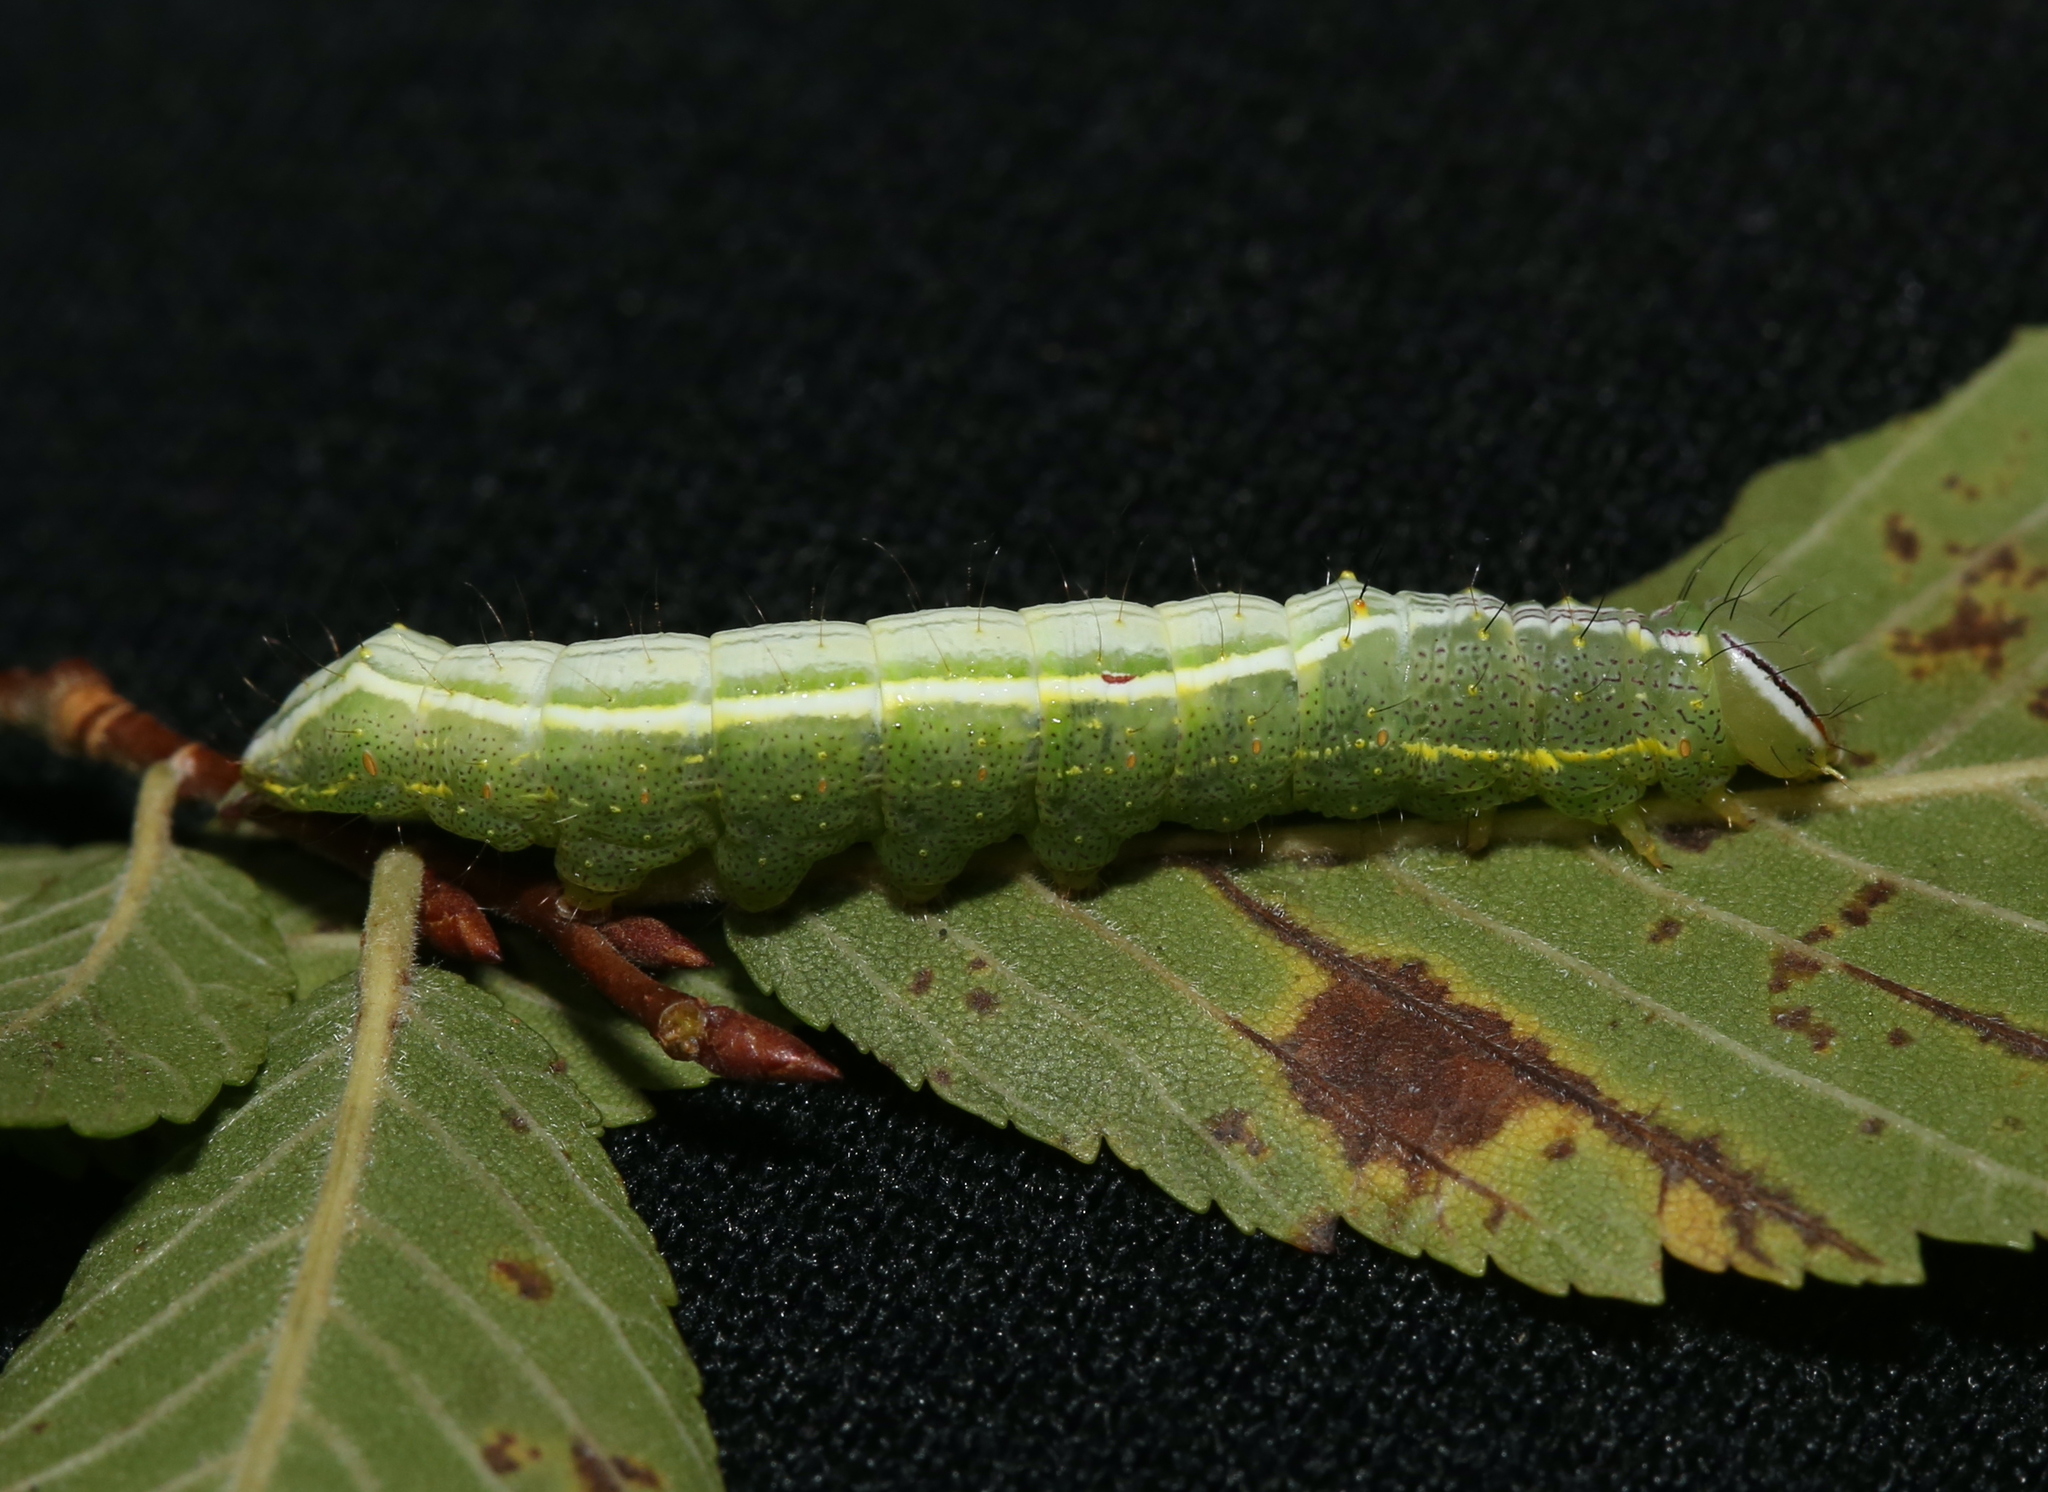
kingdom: Animalia
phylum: Arthropoda
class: Insecta
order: Lepidoptera
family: Notodontidae
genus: Lochmaeus
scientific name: Lochmaeus bilineata
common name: Double-lined prominent
